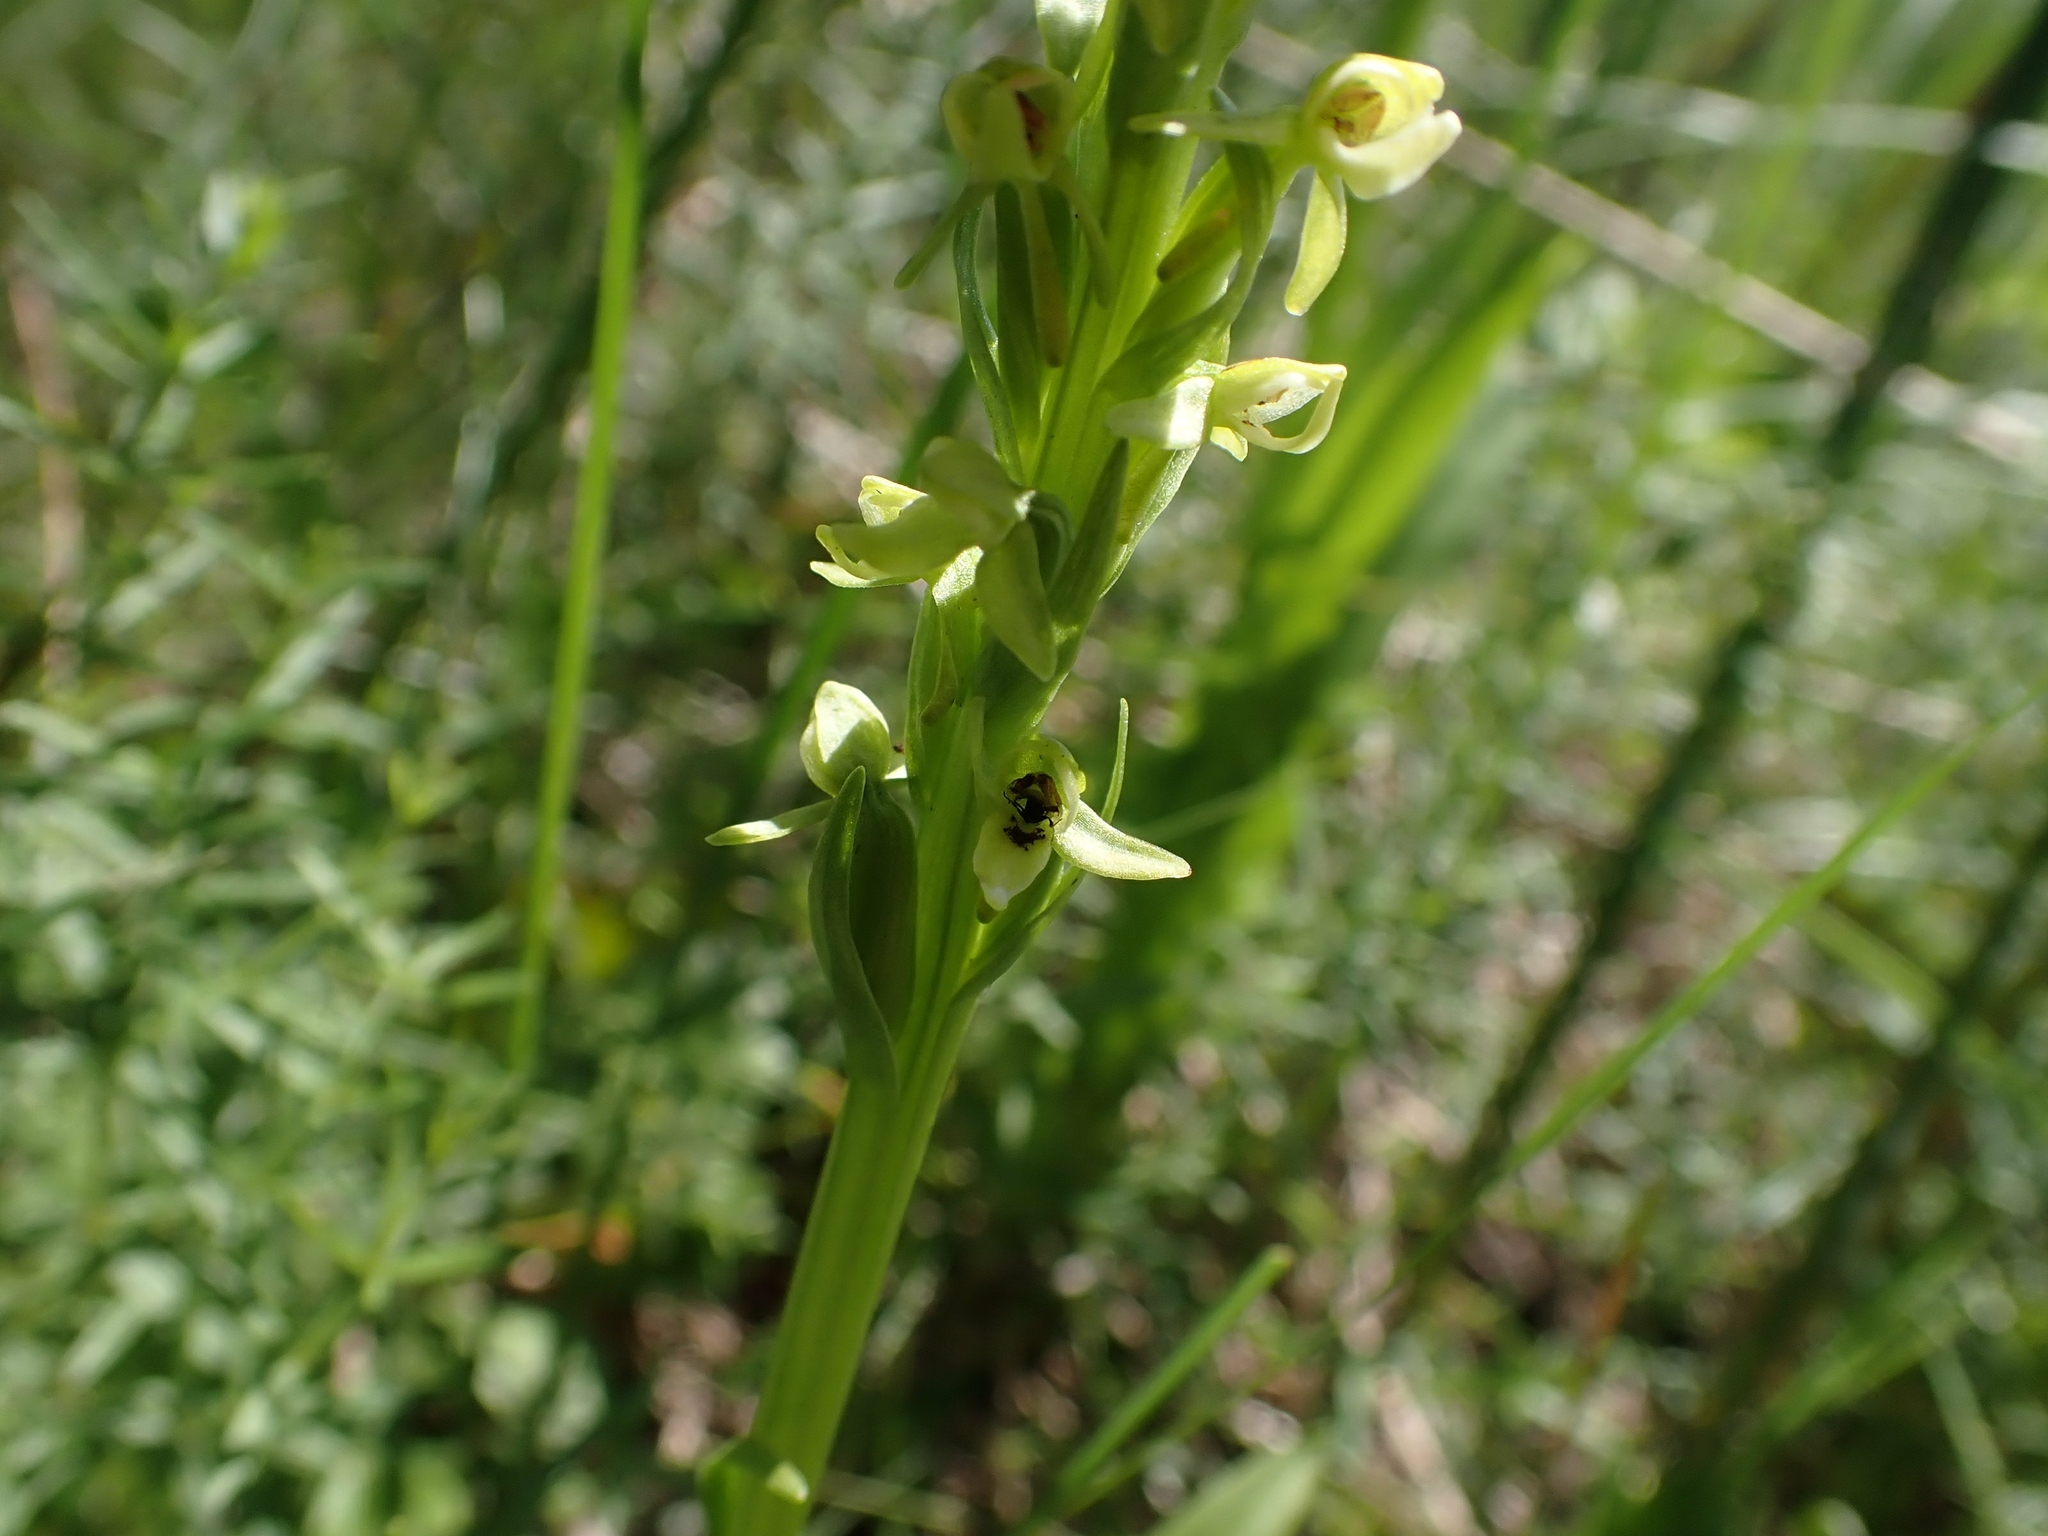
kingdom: Plantae
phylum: Tracheophyta
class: Liliopsida
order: Asparagales
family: Orchidaceae
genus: Platanthera
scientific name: Platanthera huronensis
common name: Fragrant green orchid
